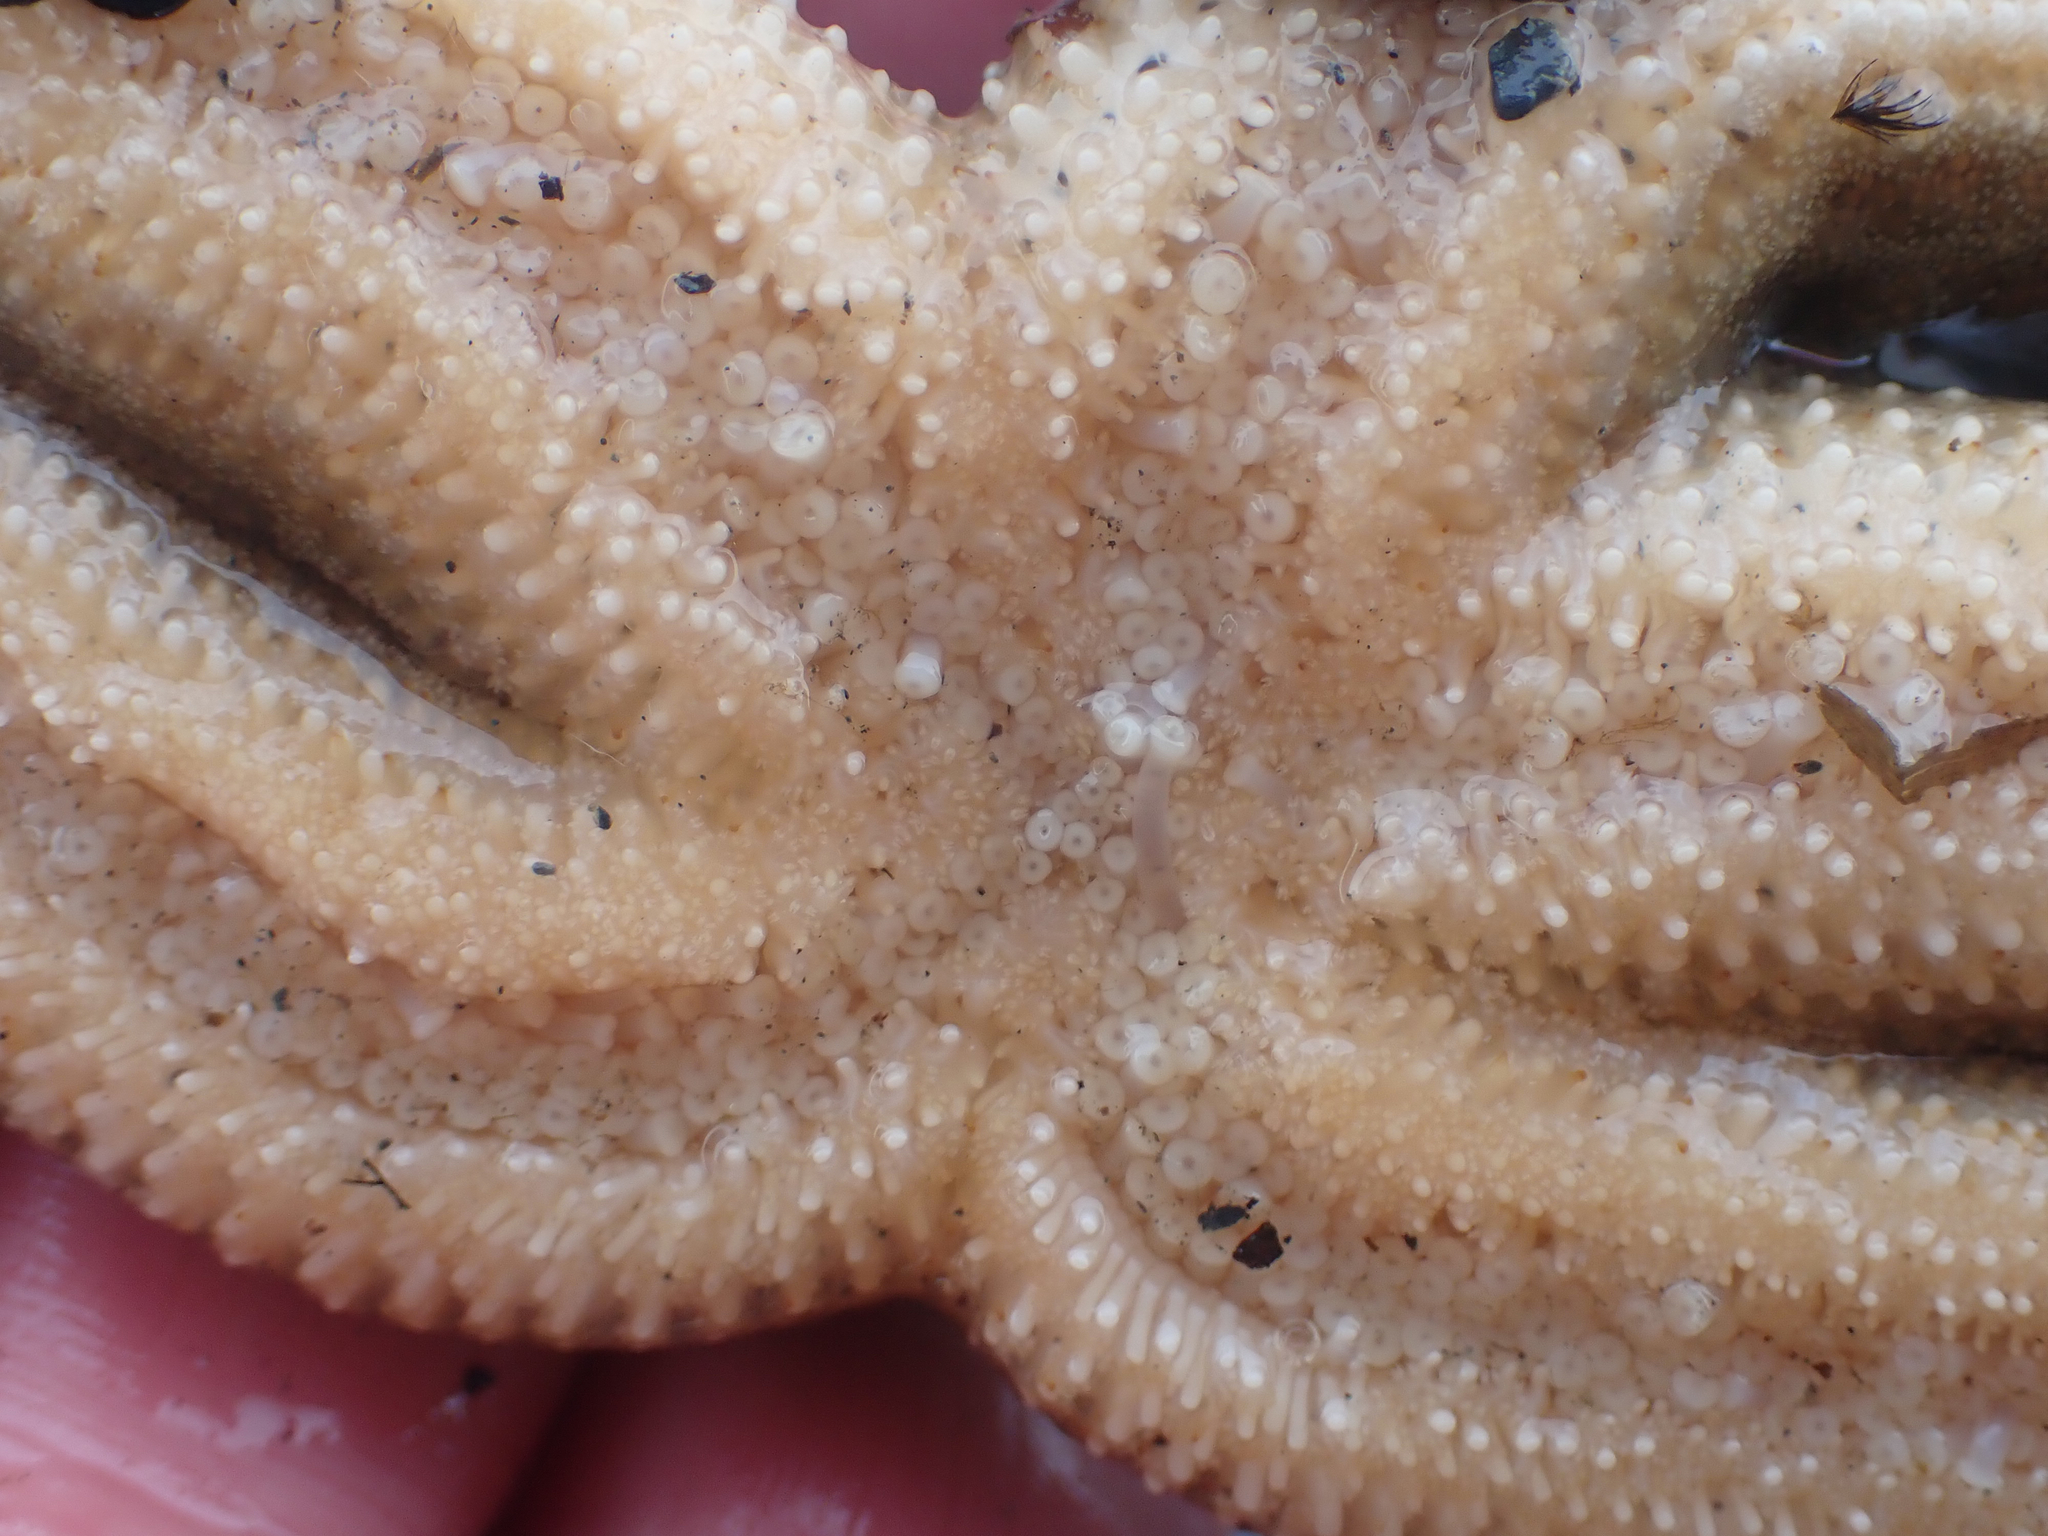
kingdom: Animalia
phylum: Echinodermata
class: Asteroidea
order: Forcipulatida
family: Asteriidae
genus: Evasterias
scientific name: Evasterias troschelii
